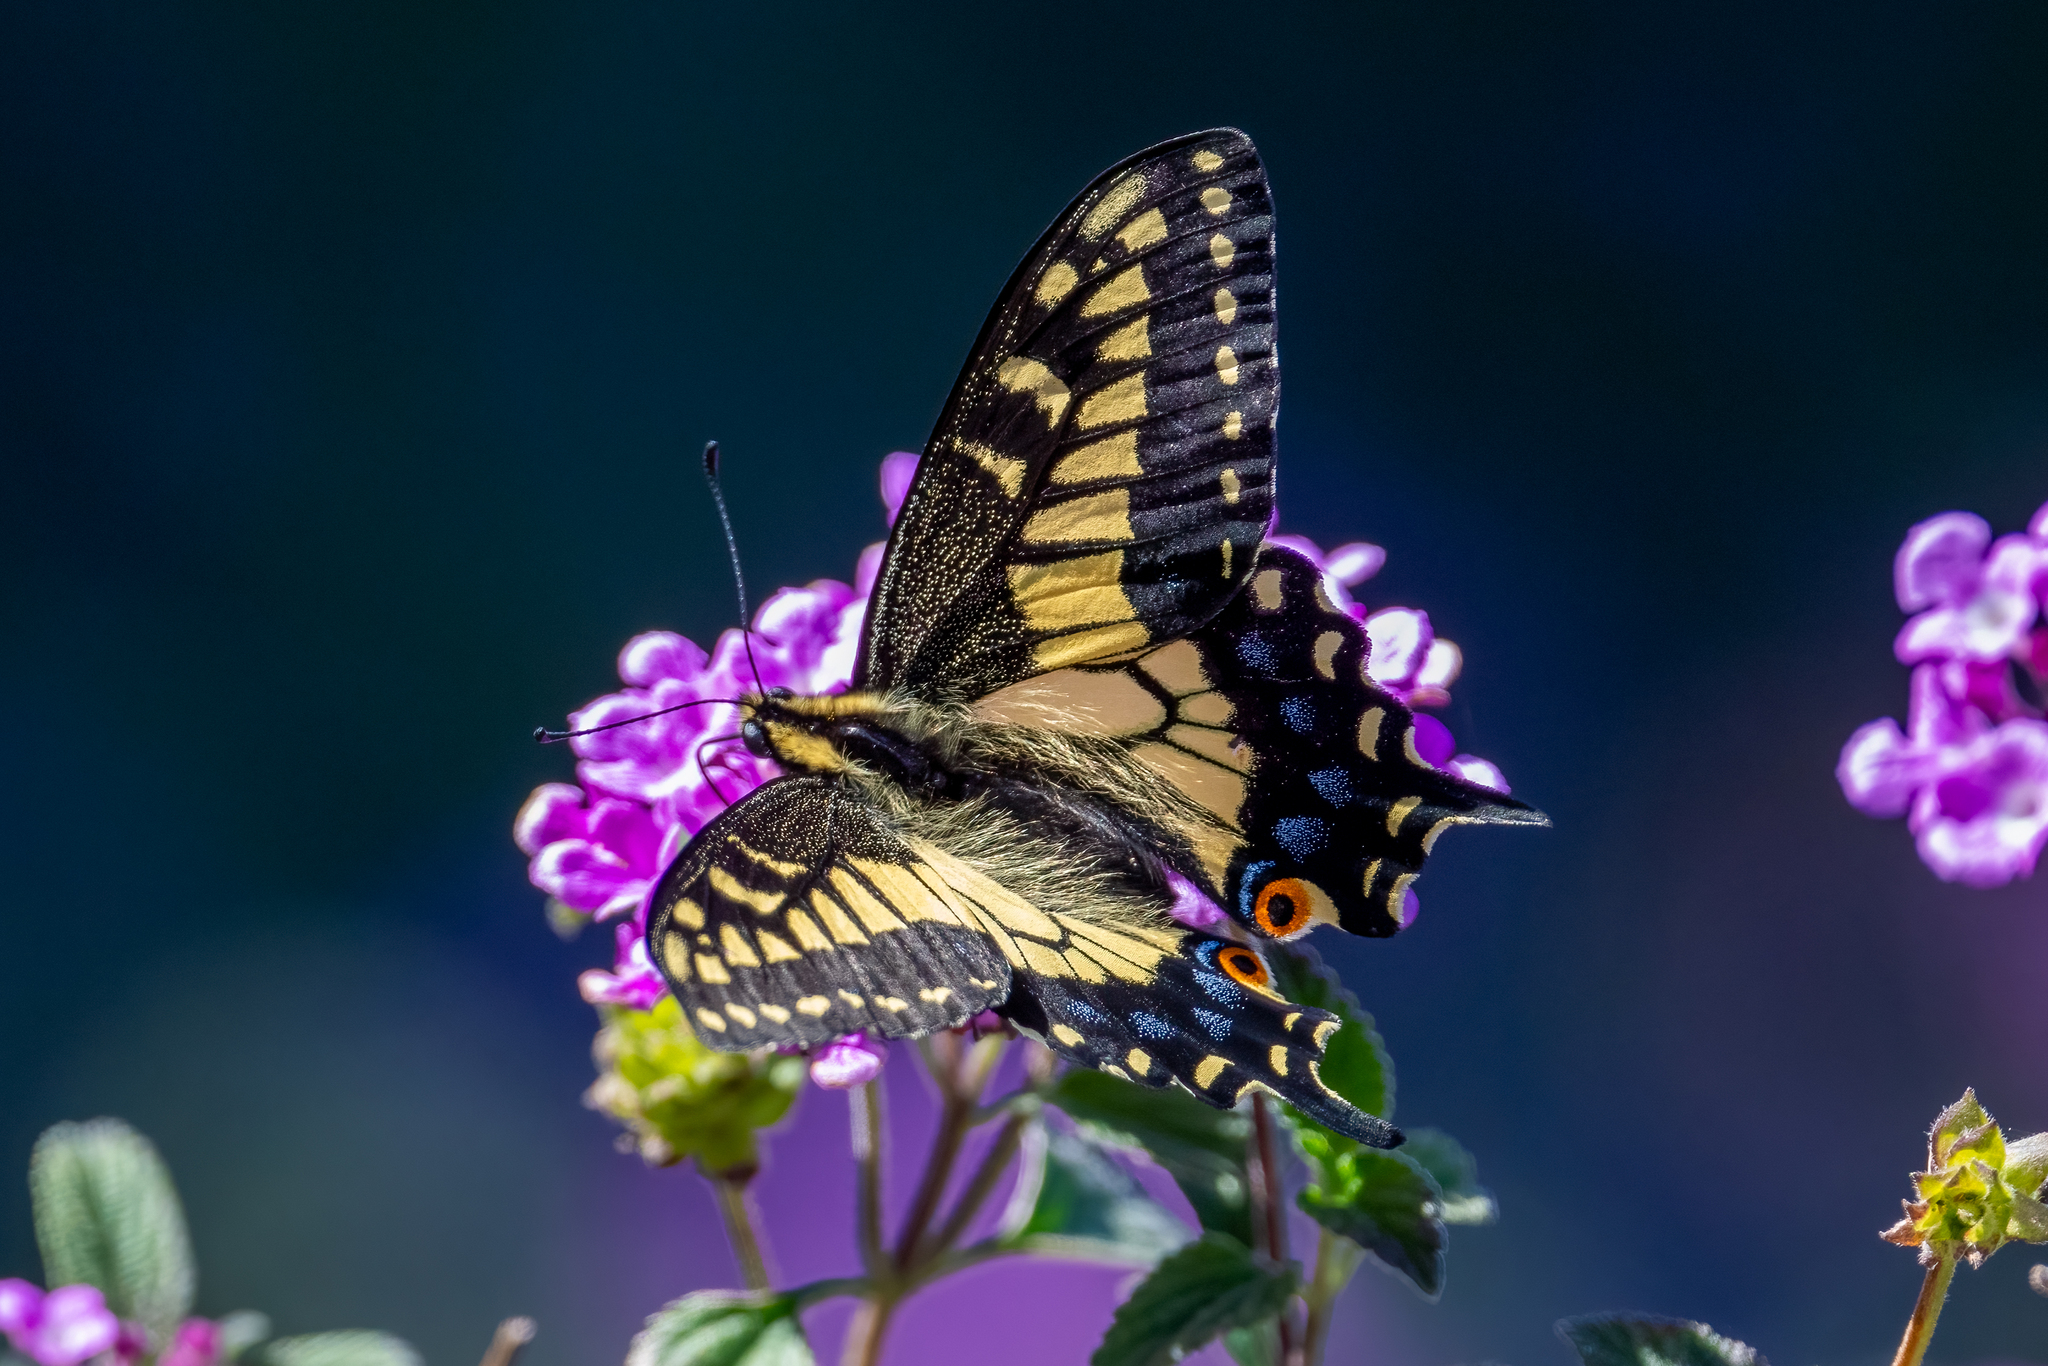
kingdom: Animalia
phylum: Arthropoda
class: Insecta
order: Lepidoptera
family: Papilionidae
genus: Papilio
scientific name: Papilio zelicaon
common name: Anise swallowtail
